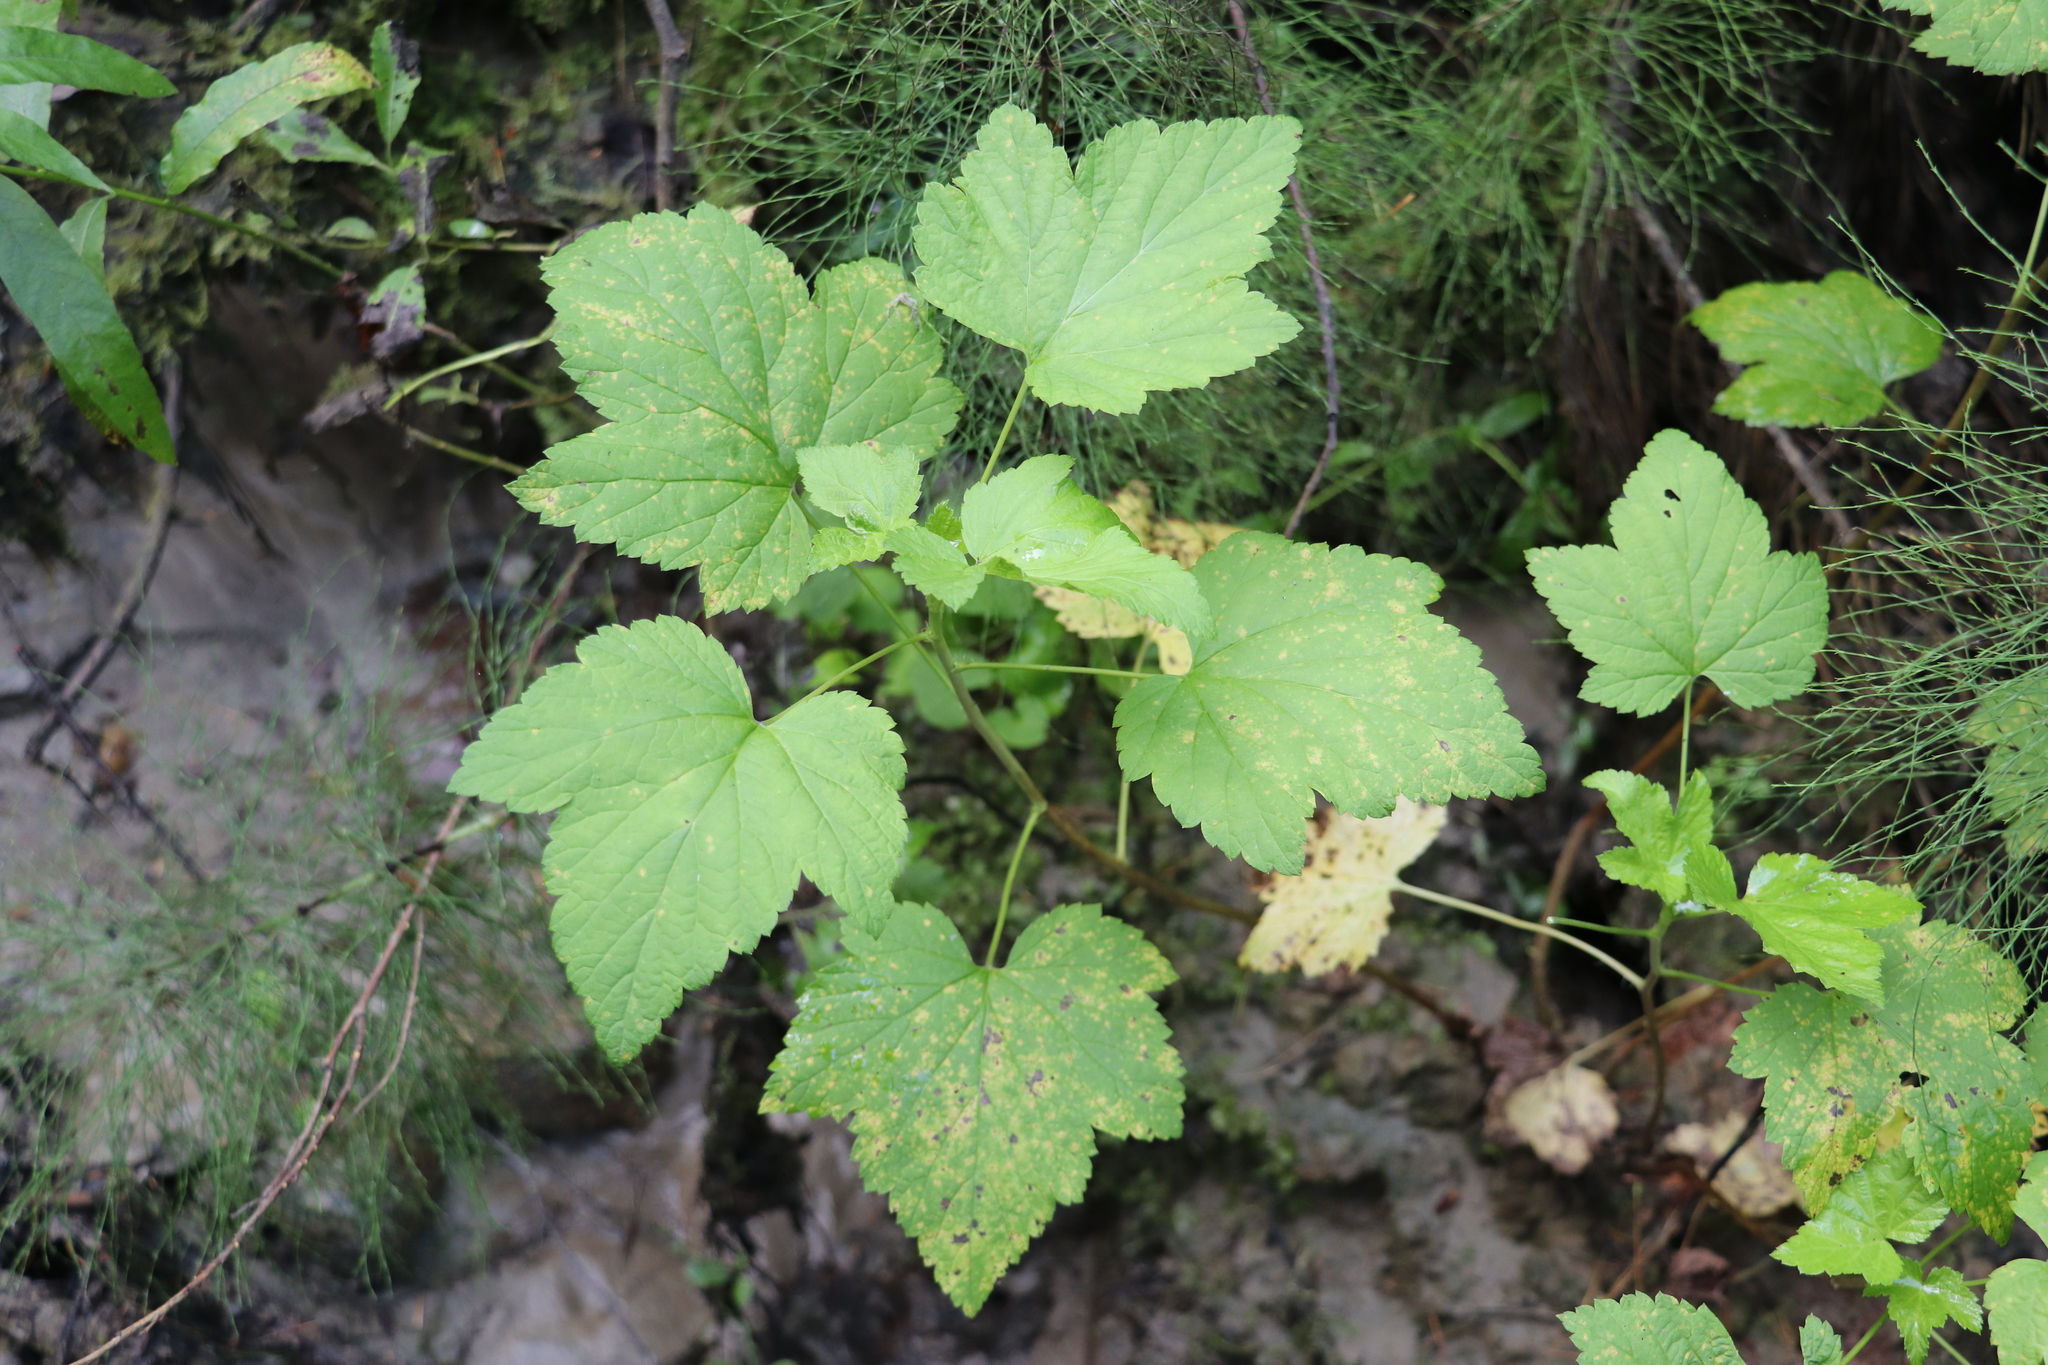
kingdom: Plantae
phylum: Tracheophyta
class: Magnoliopsida
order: Saxifragales
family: Grossulariaceae
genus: Ribes
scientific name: Ribes nigrum
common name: Black currant
